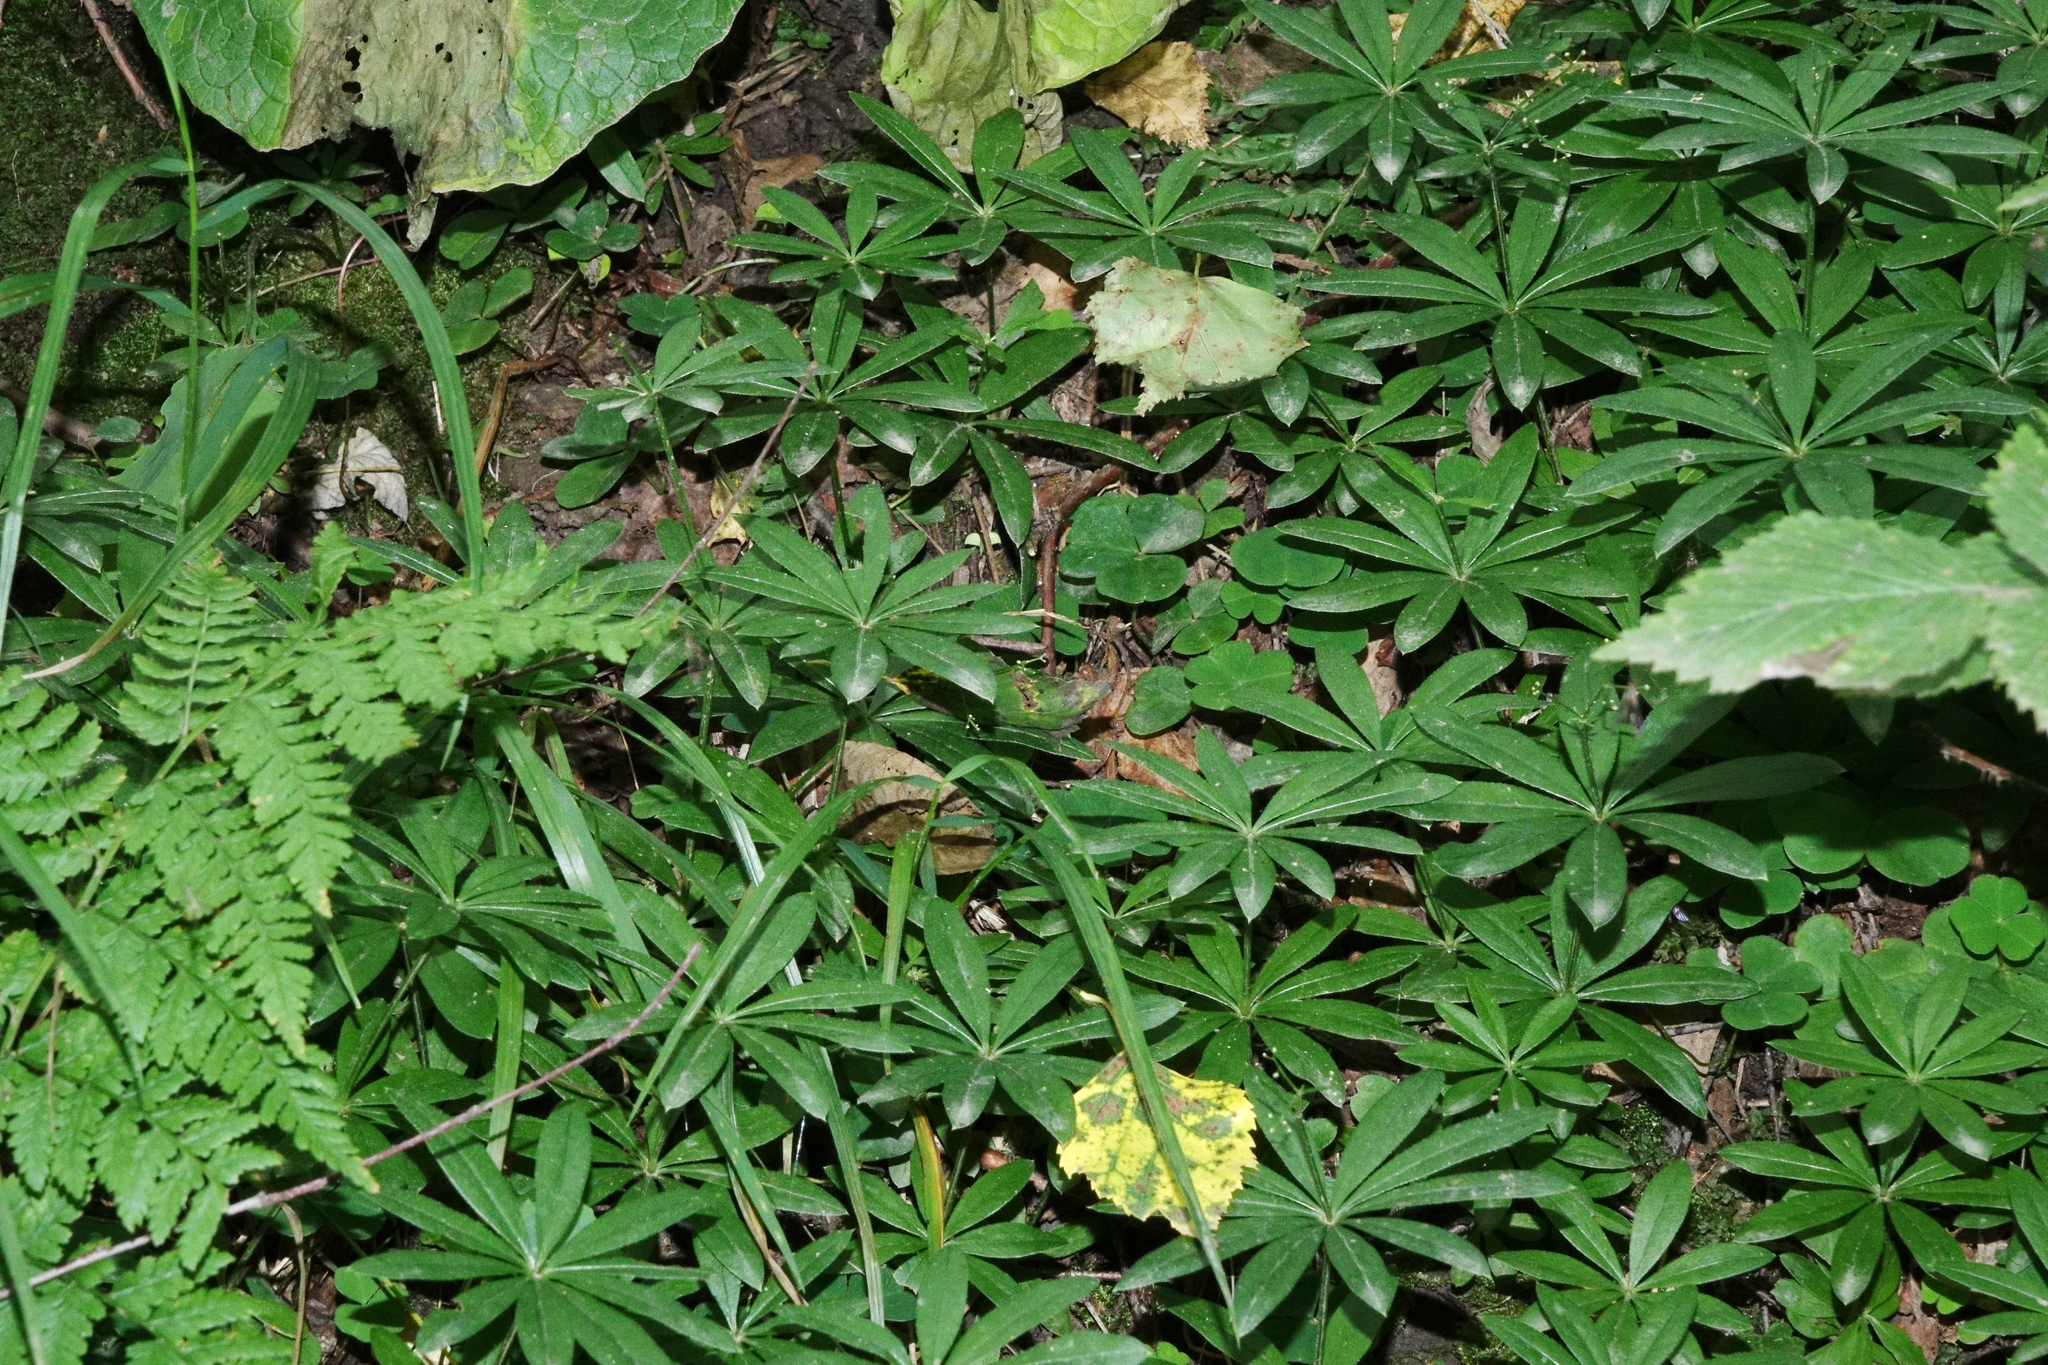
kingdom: Plantae
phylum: Tracheophyta
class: Magnoliopsida
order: Gentianales
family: Rubiaceae
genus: Galium
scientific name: Galium odoratum
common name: Sweet woodruff
